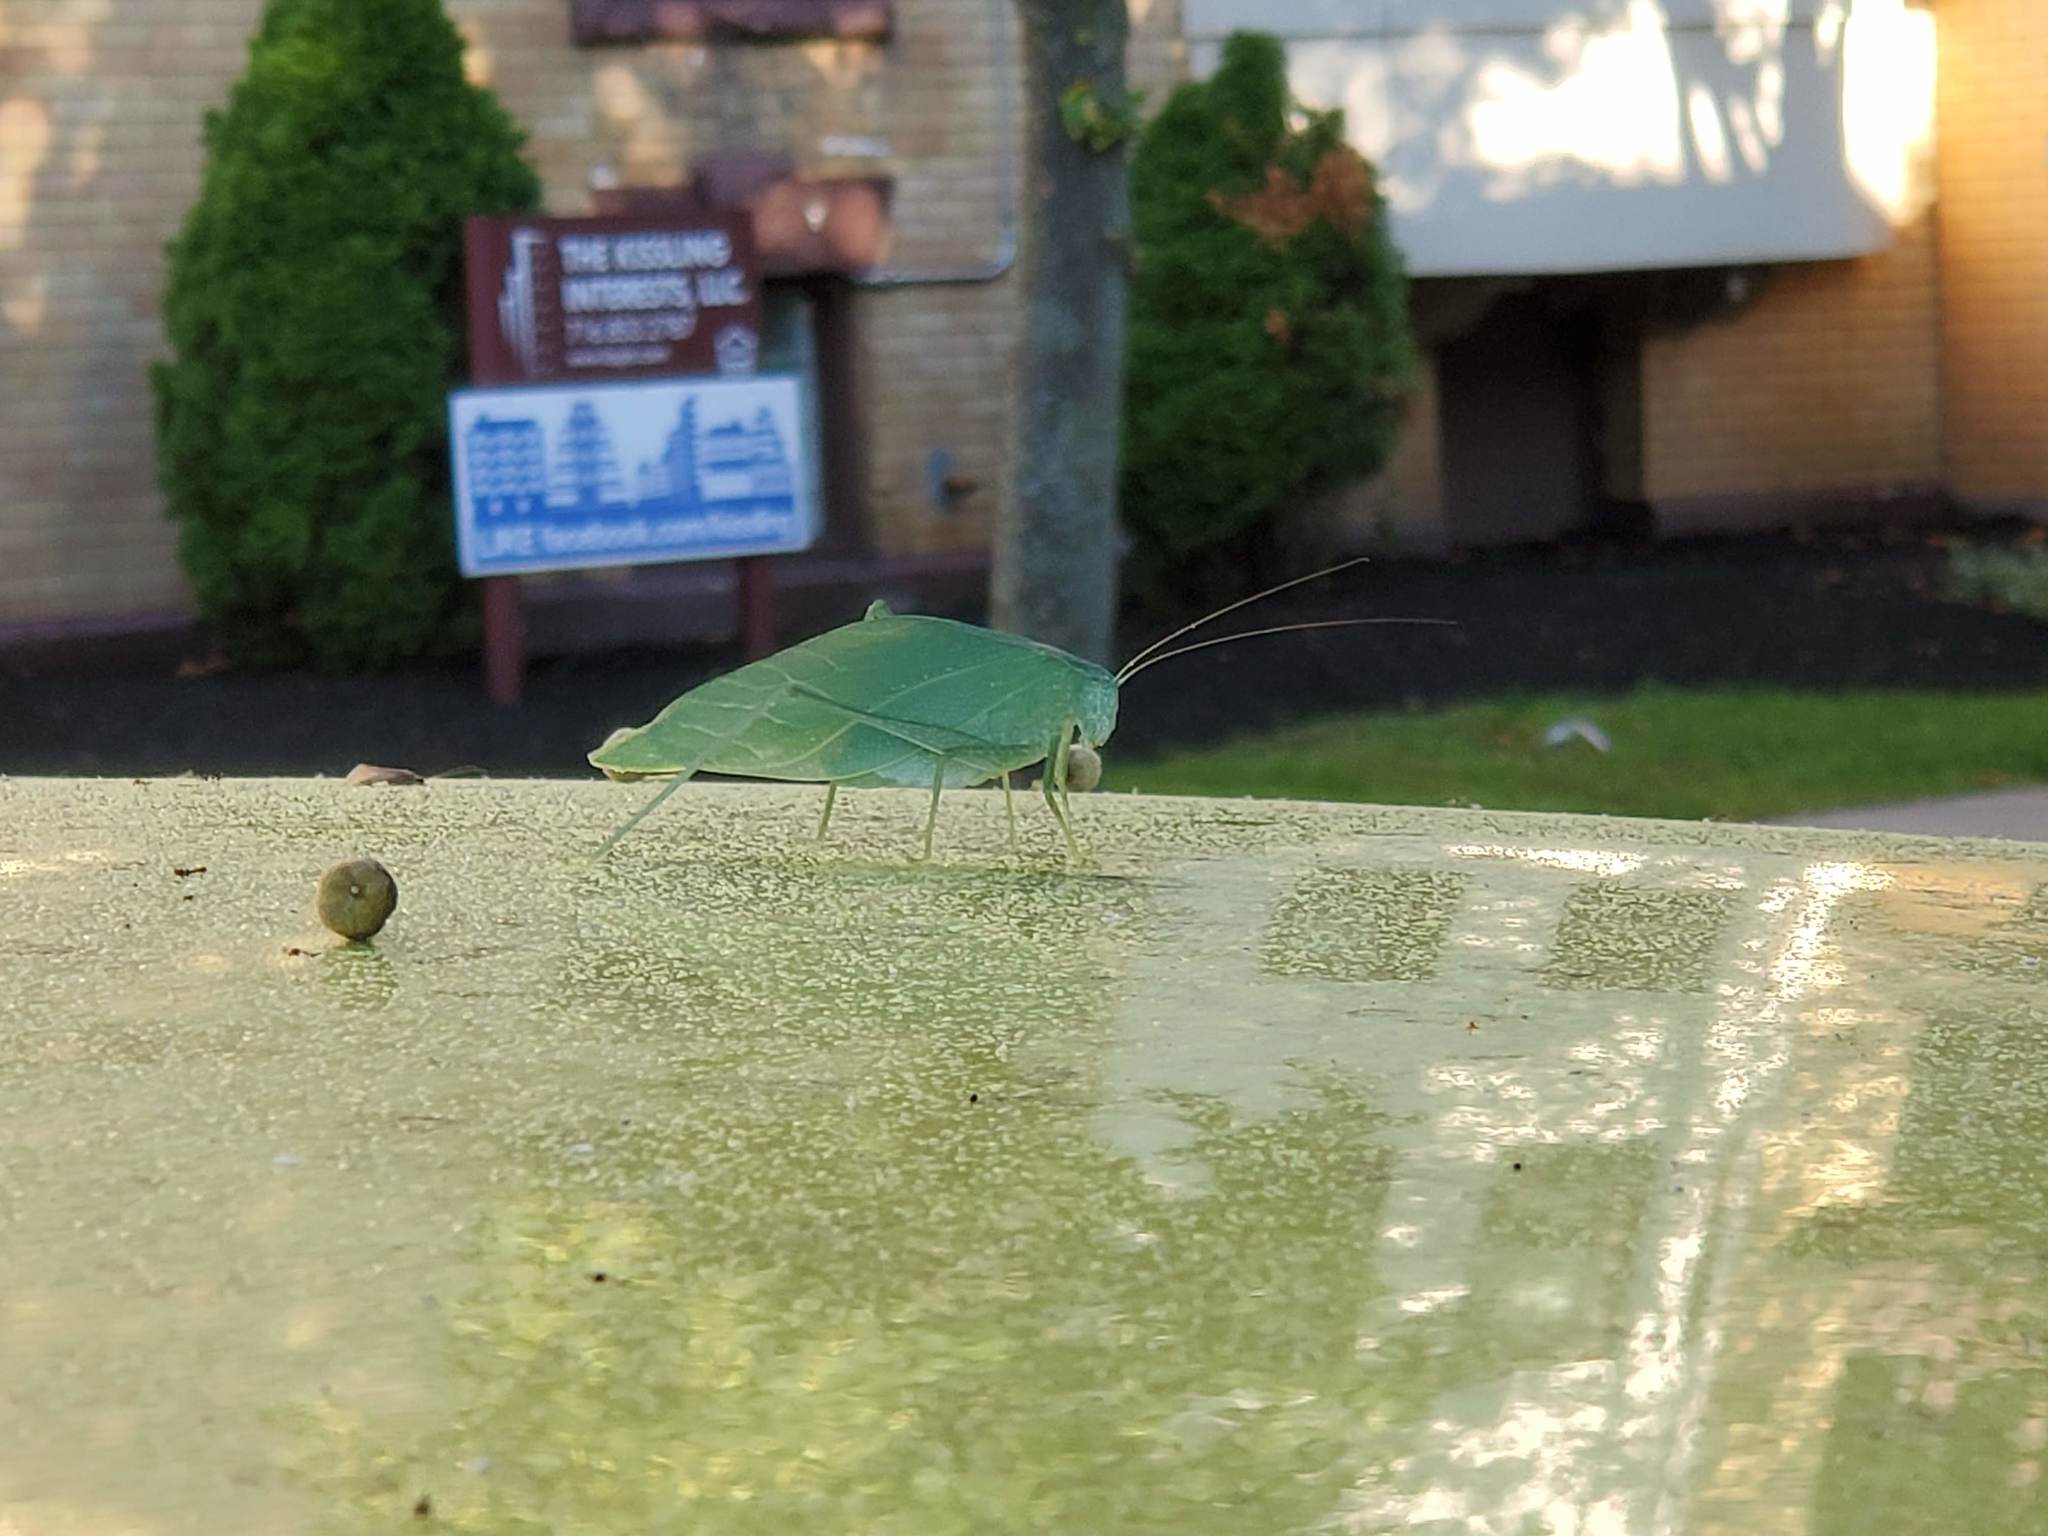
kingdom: Animalia
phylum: Arthropoda
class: Insecta
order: Orthoptera
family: Tettigoniidae
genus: Microcentrum
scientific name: Microcentrum rhombifolium
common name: Broad-winged katydid
